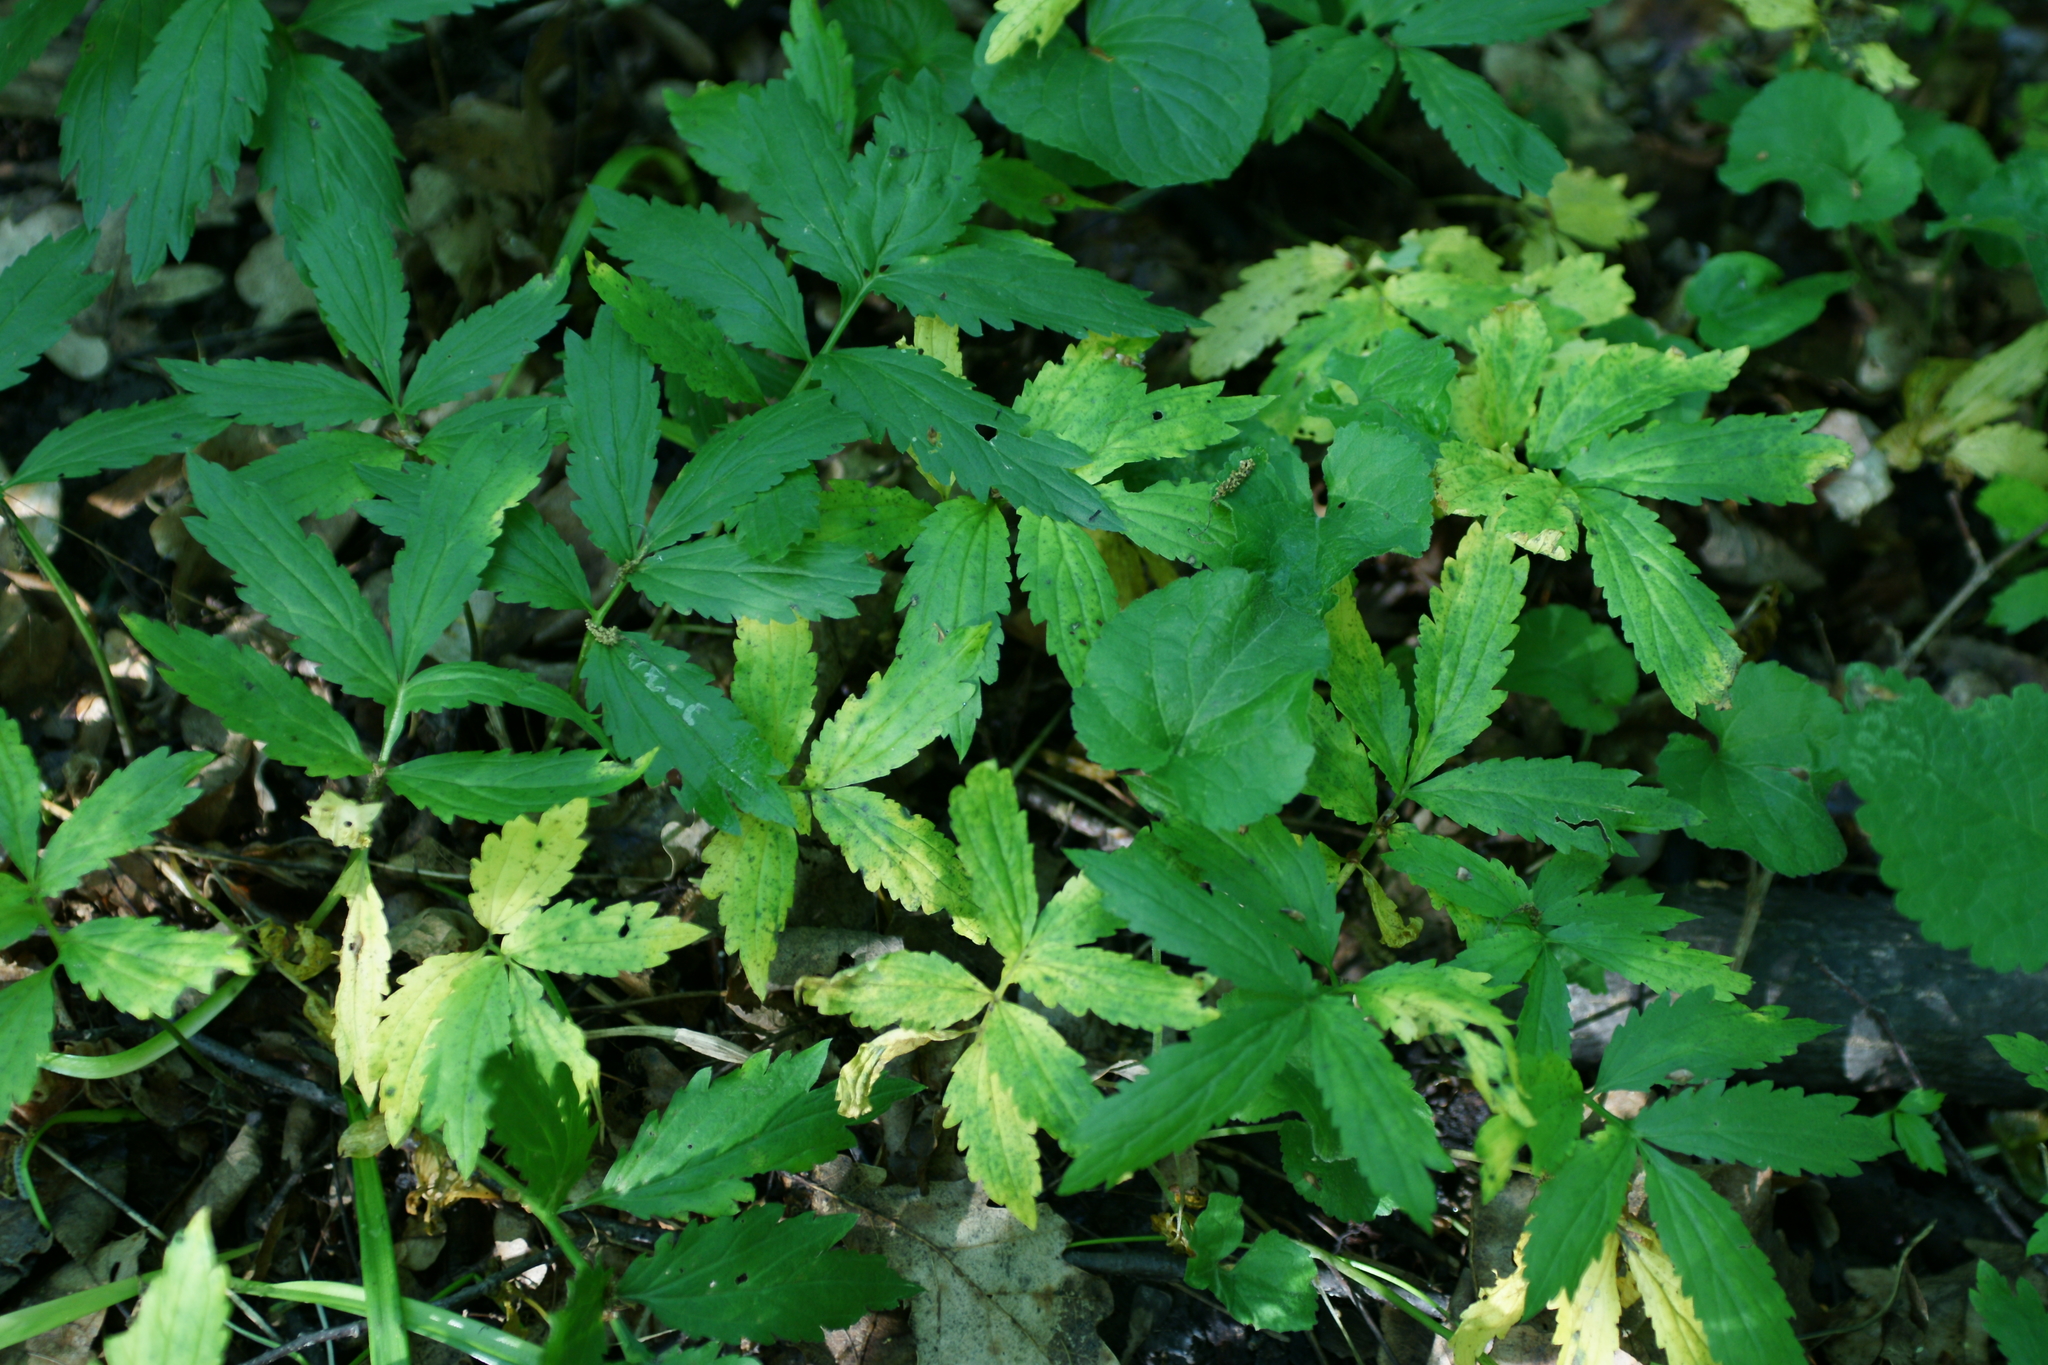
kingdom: Plantae
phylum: Tracheophyta
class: Magnoliopsida
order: Brassicales
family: Brassicaceae
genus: Cardamine
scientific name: Cardamine bulbifera
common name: Coralroot bittercress
